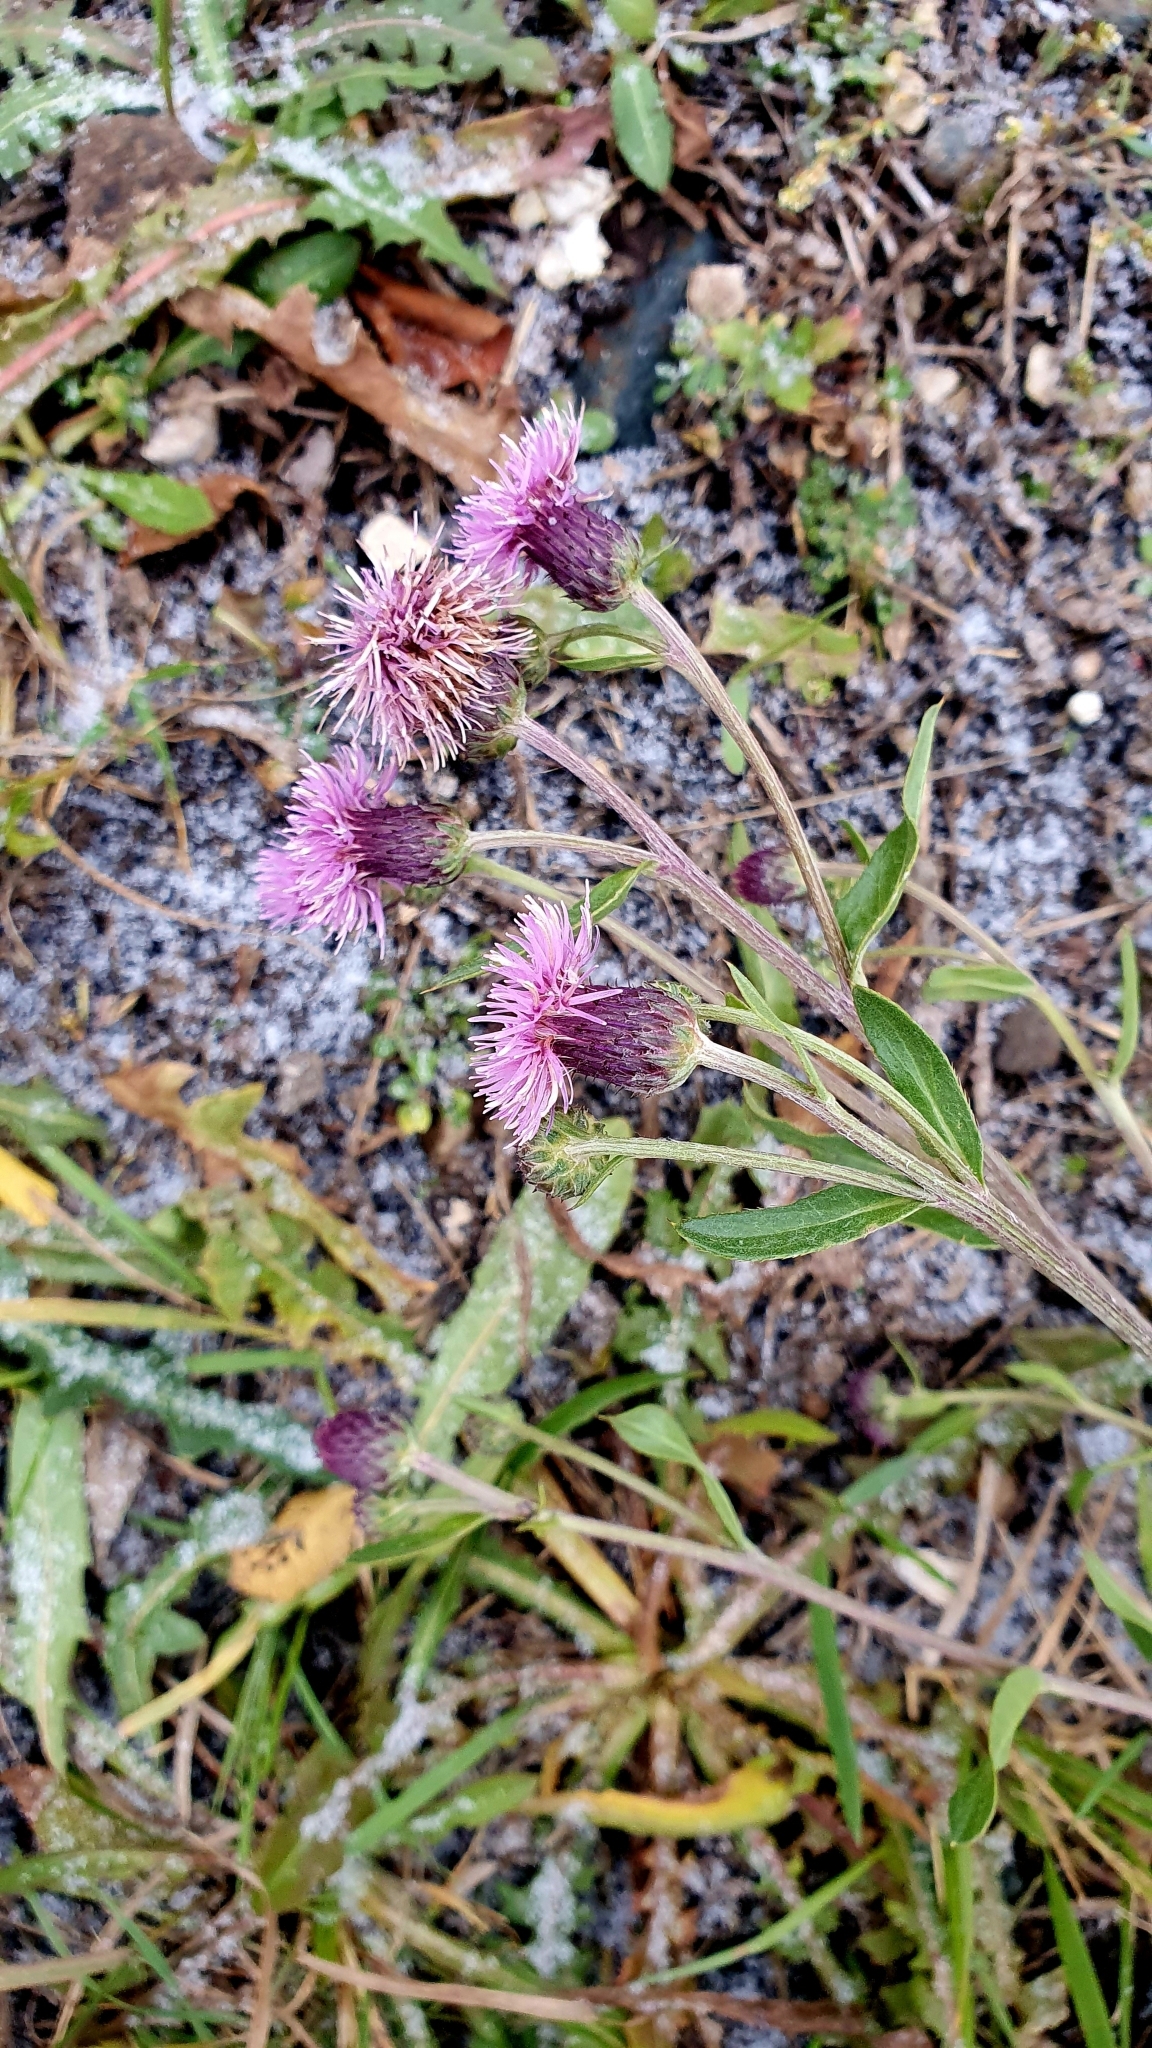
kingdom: Plantae
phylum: Tracheophyta
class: Magnoliopsida
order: Asterales
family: Asteraceae
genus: Cirsium
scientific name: Cirsium arvense
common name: Creeping thistle
